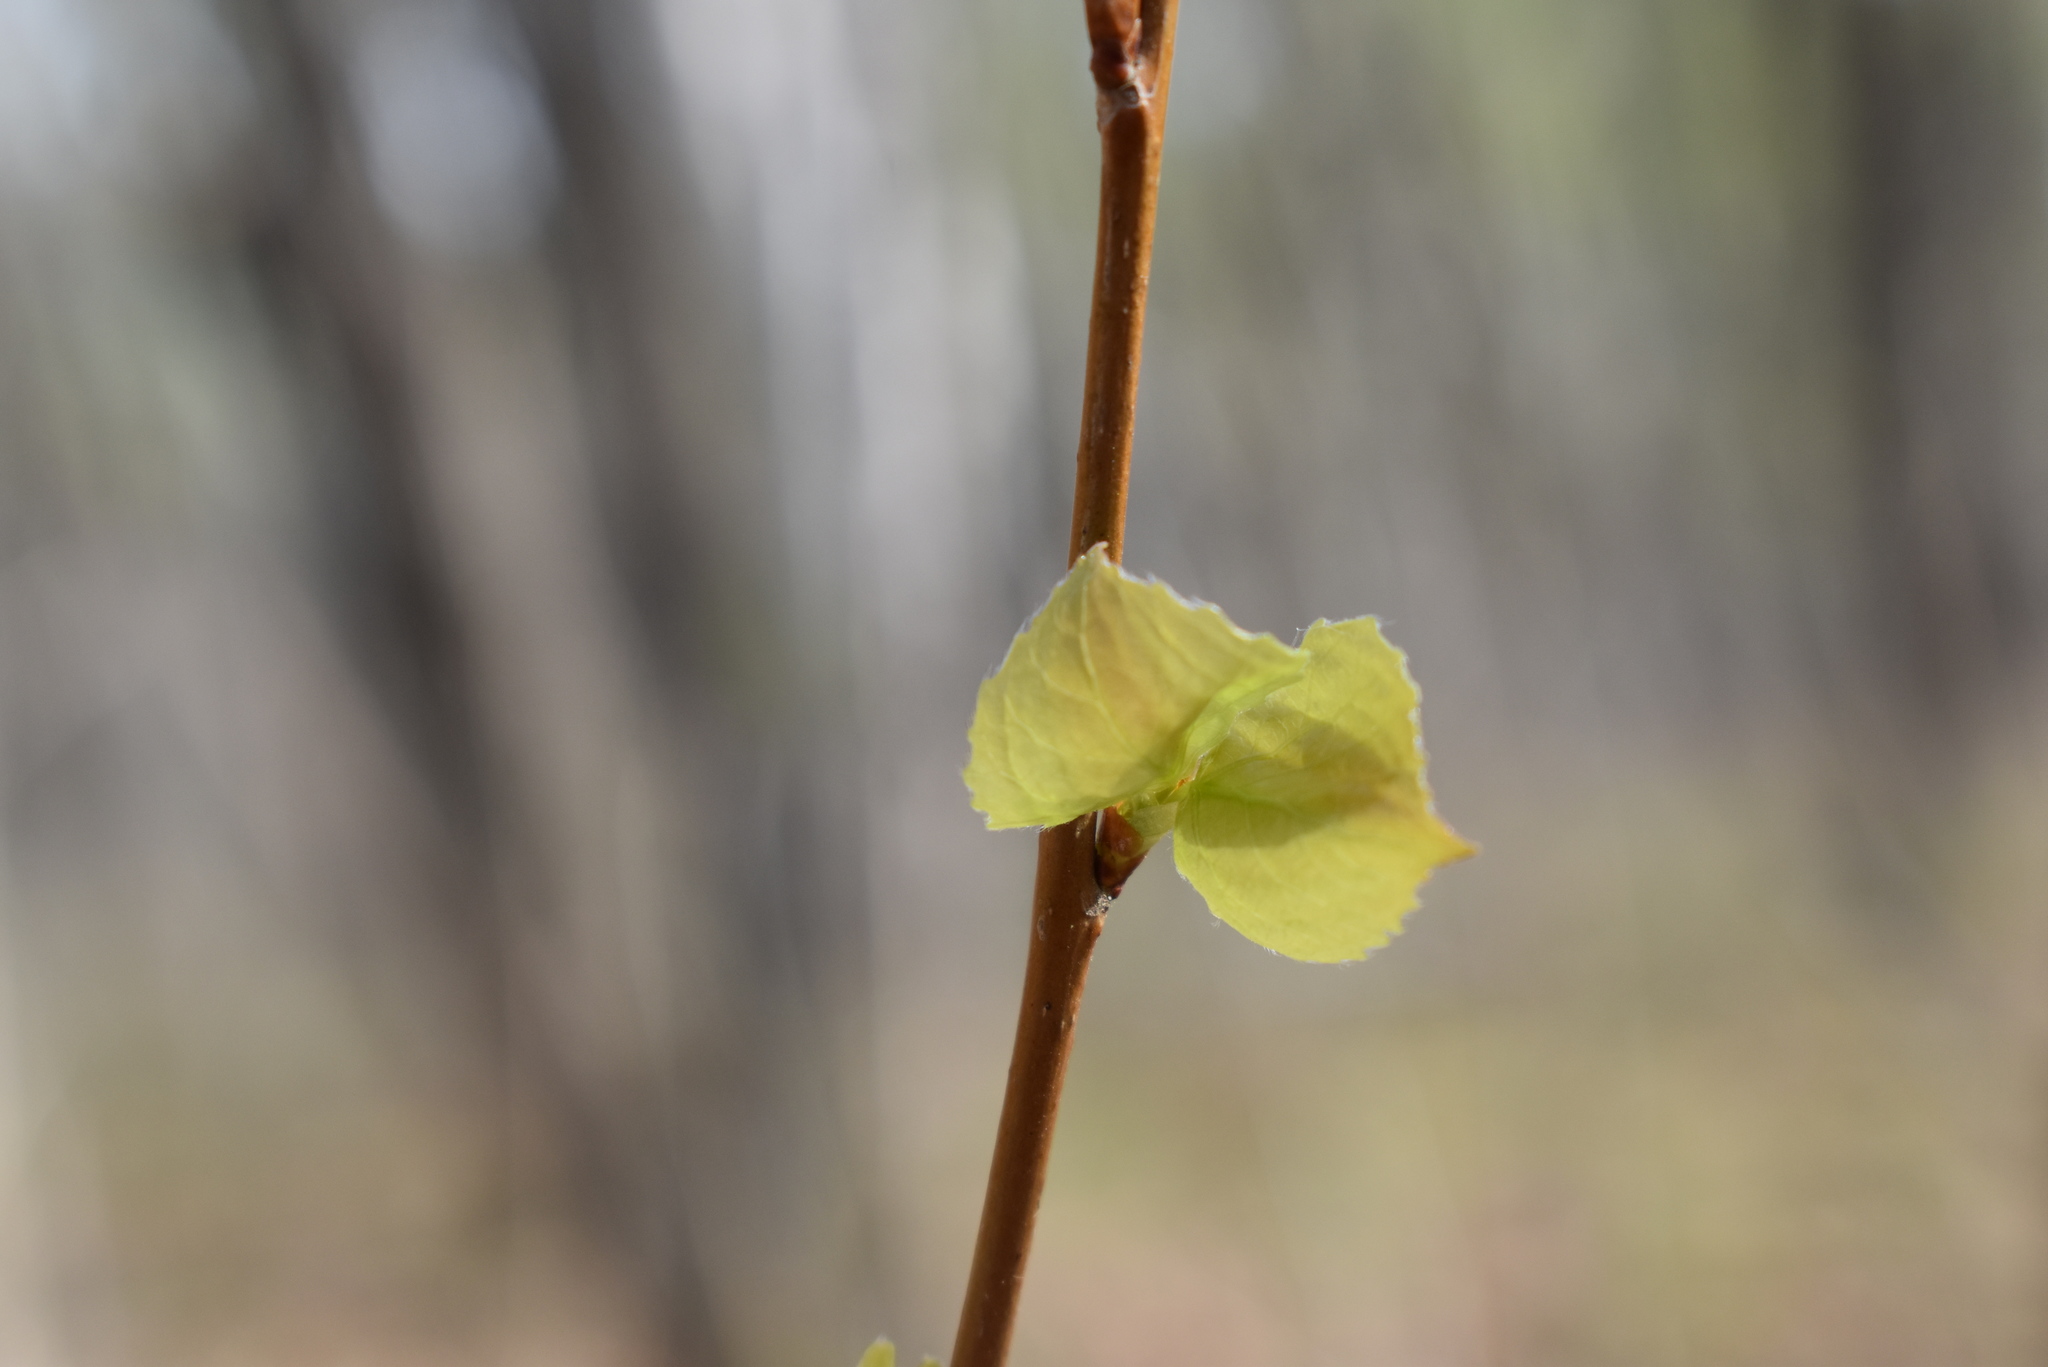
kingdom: Plantae
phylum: Tracheophyta
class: Magnoliopsida
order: Malpighiales
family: Salicaceae
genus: Populus
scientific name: Populus tremula
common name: European aspen
